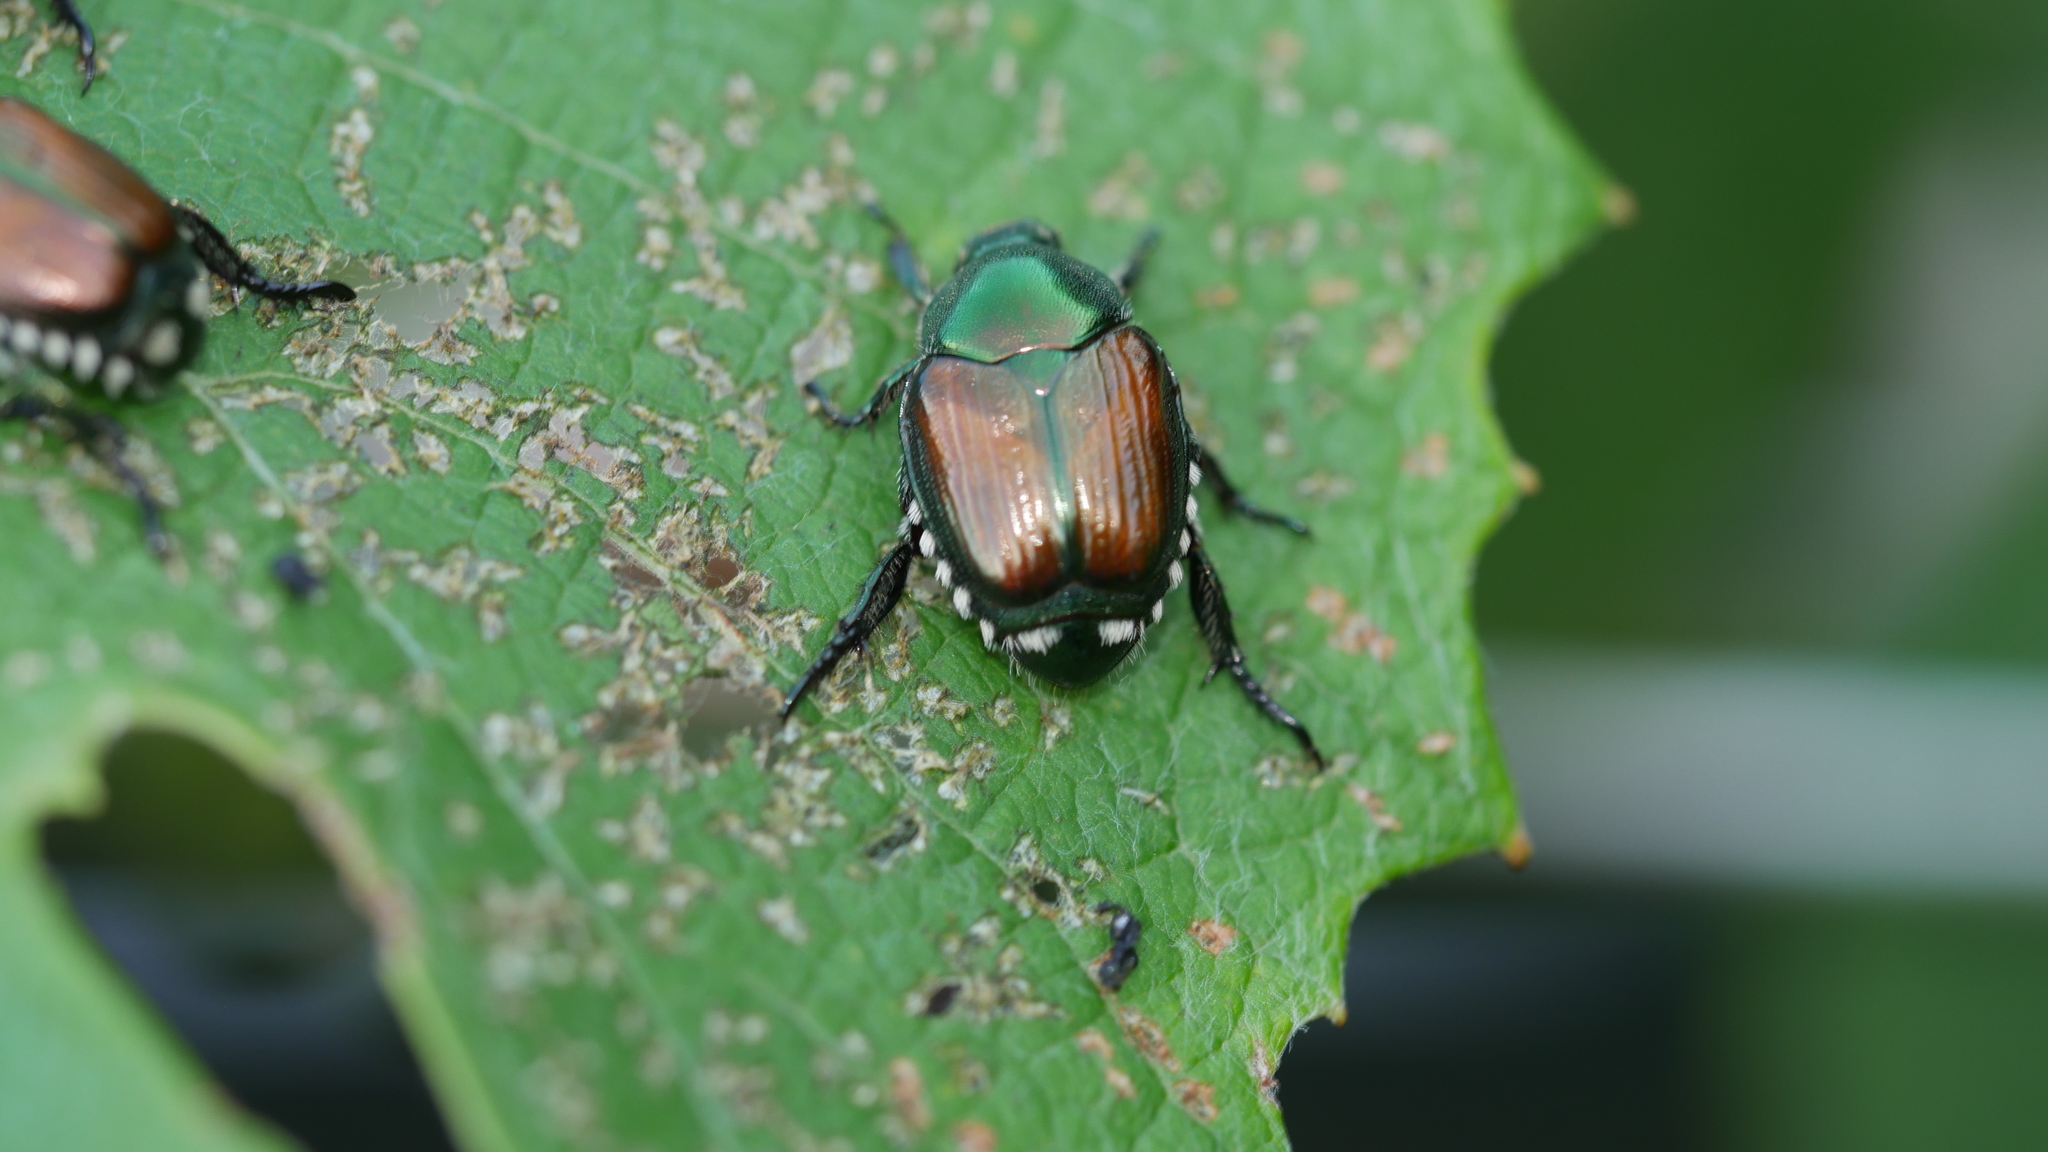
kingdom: Animalia
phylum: Arthropoda
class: Insecta
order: Coleoptera
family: Scarabaeidae
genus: Popillia
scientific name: Popillia japonica
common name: Japanese beetle
